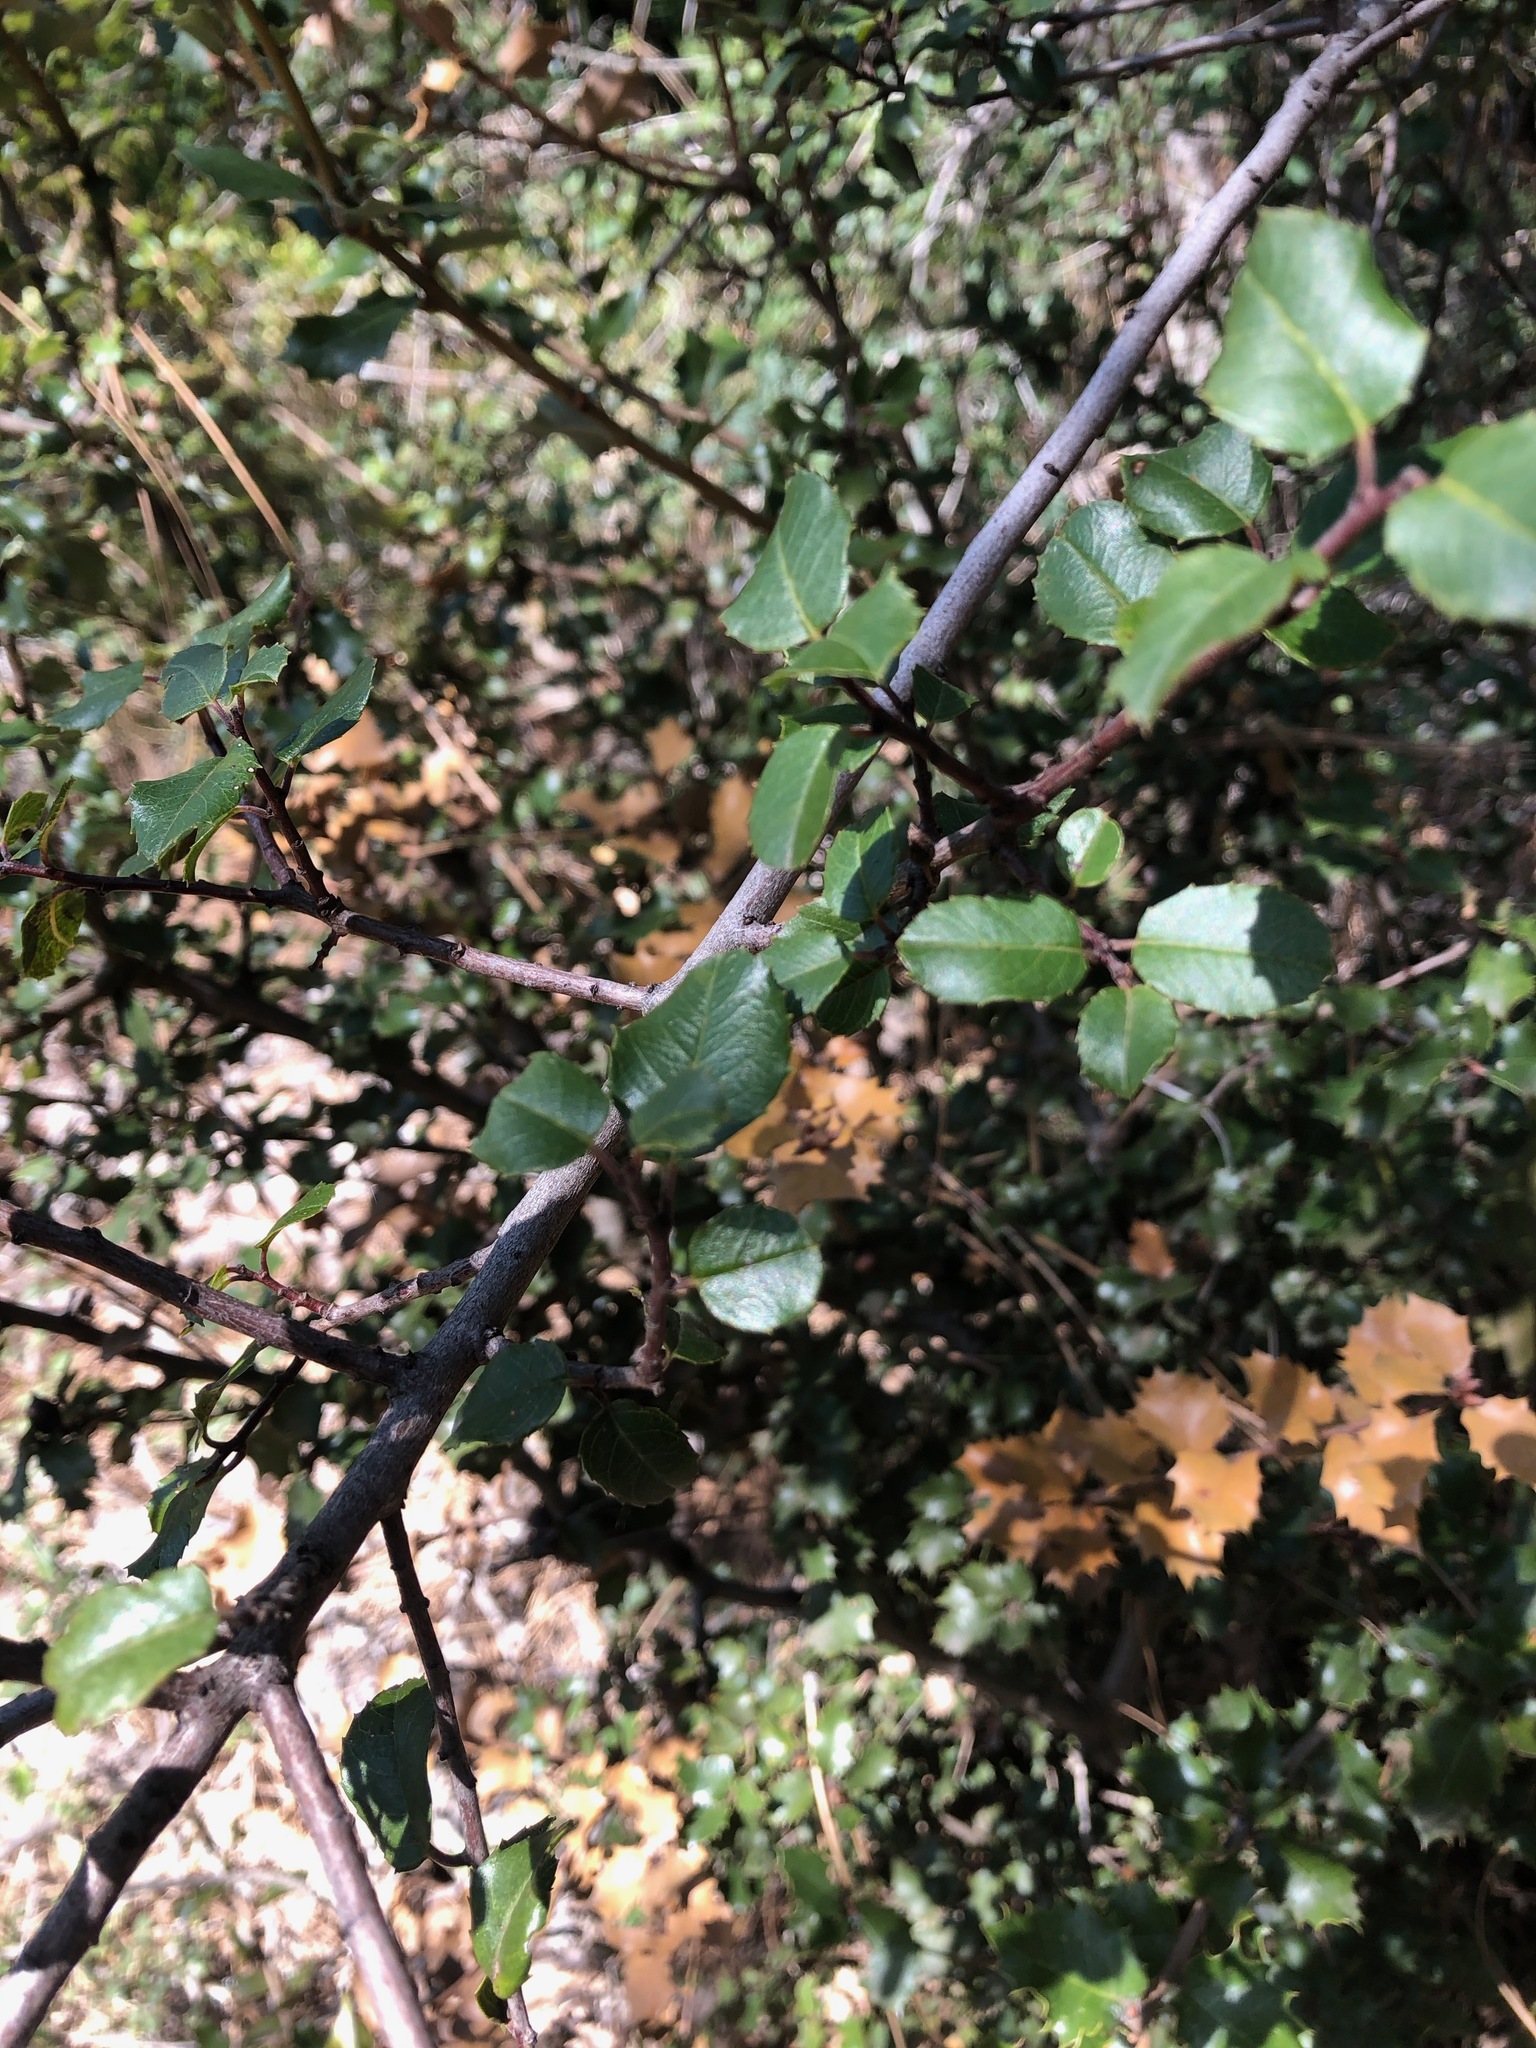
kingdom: Plantae
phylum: Tracheophyta
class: Magnoliopsida
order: Rosales
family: Rhamnaceae
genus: Endotropis
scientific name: Endotropis crocea
